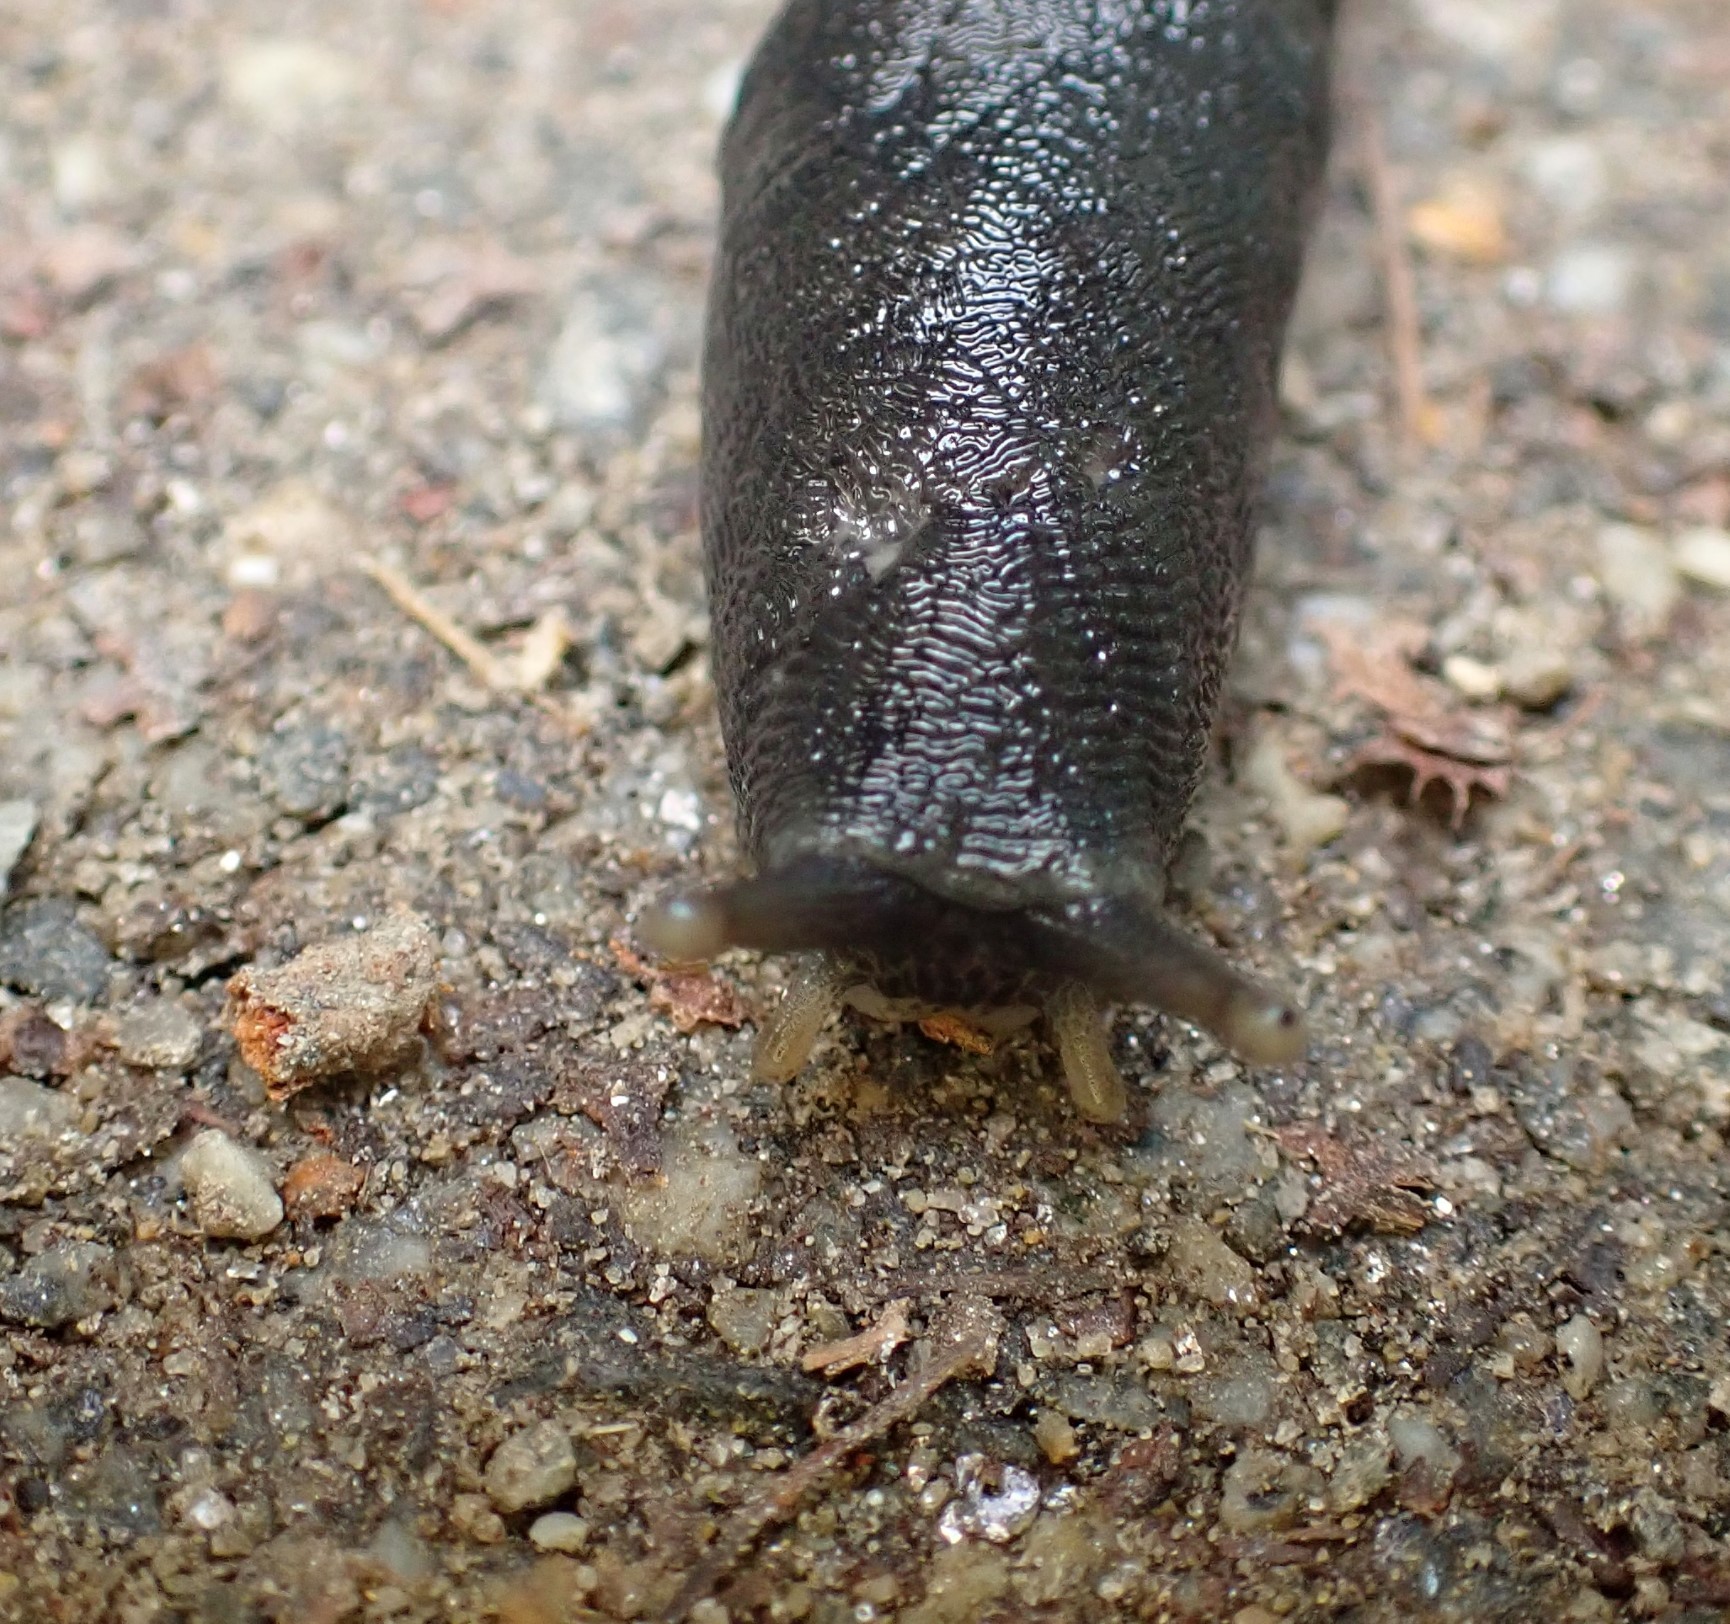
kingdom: Animalia
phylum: Mollusca
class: Gastropoda
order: Stylommatophora
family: Limacidae
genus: Limax
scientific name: Limax cinereoniger
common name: Ash-black slug
